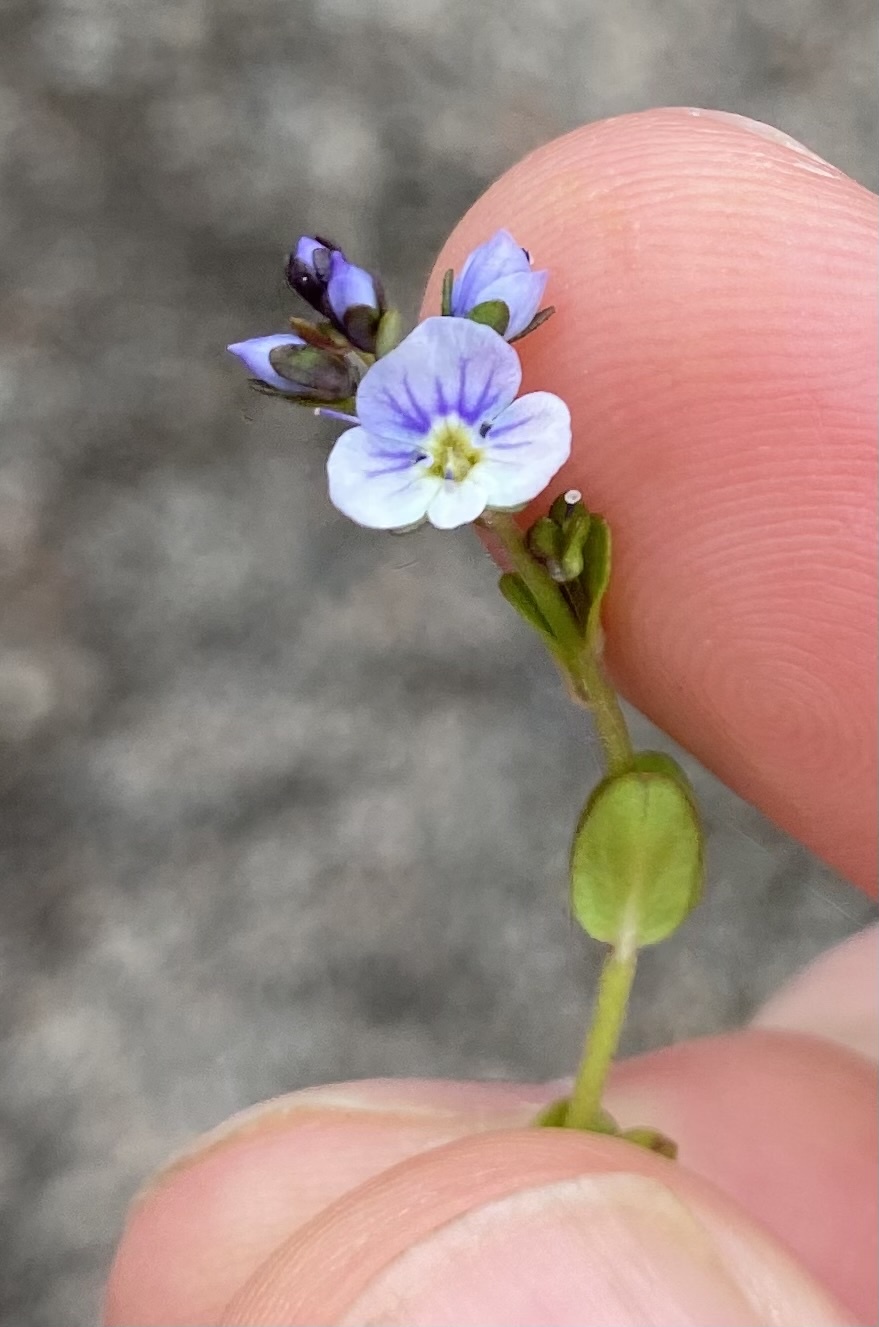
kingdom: Plantae
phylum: Tracheophyta
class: Magnoliopsida
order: Lamiales
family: Plantaginaceae
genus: Veronica
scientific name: Veronica serpyllifolia
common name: Thyme-leaved speedwell
